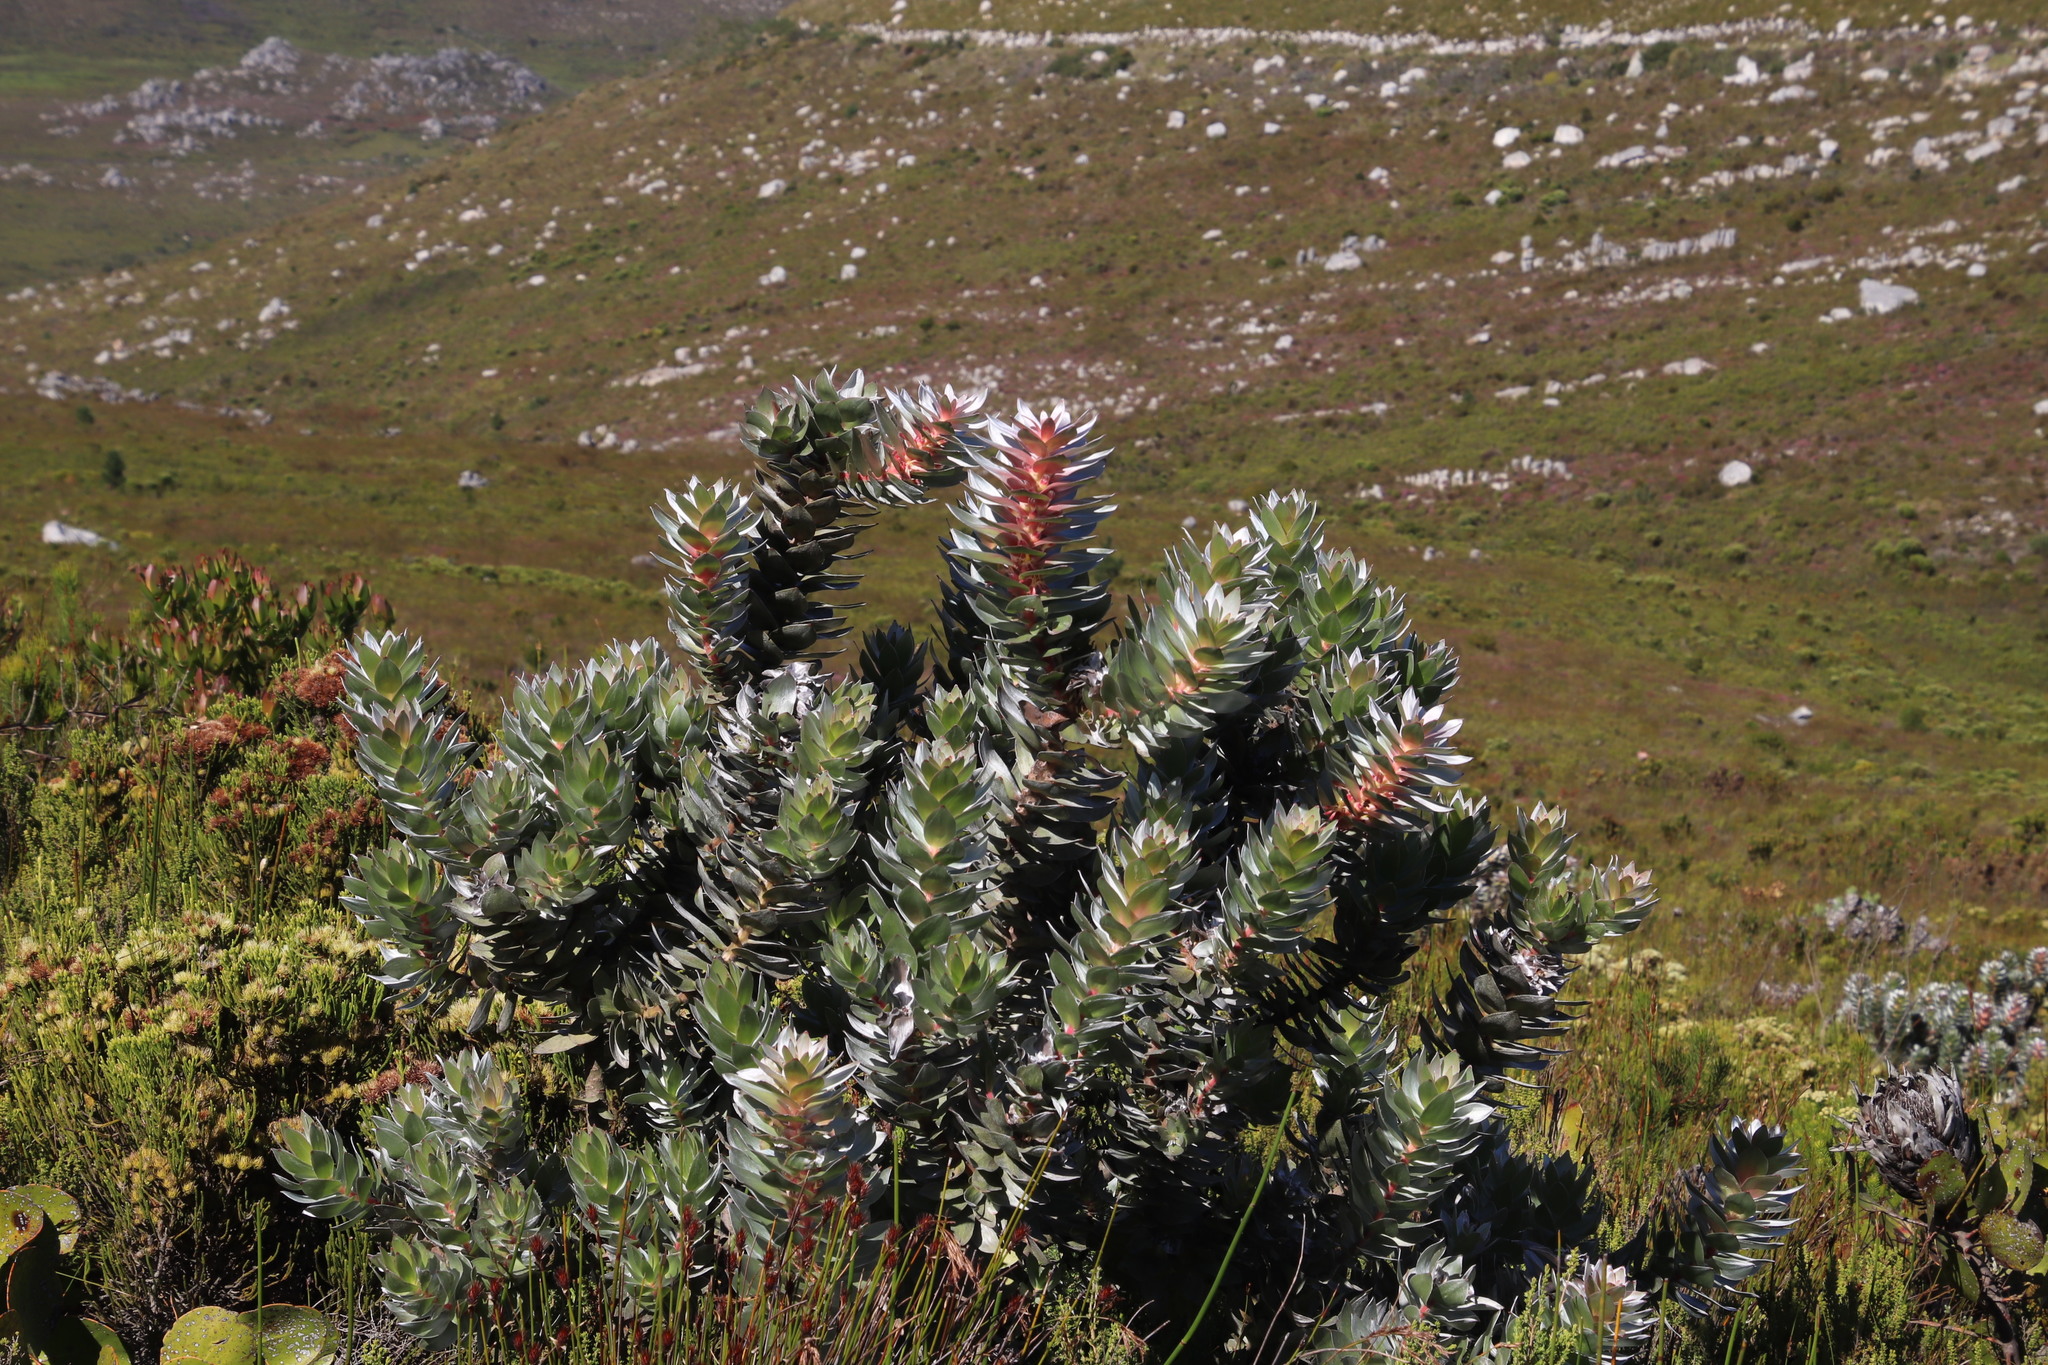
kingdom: Plantae
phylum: Tracheophyta
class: Magnoliopsida
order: Proteales
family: Proteaceae
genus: Mimetes
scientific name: Mimetes argenteus
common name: Silver pagoda
